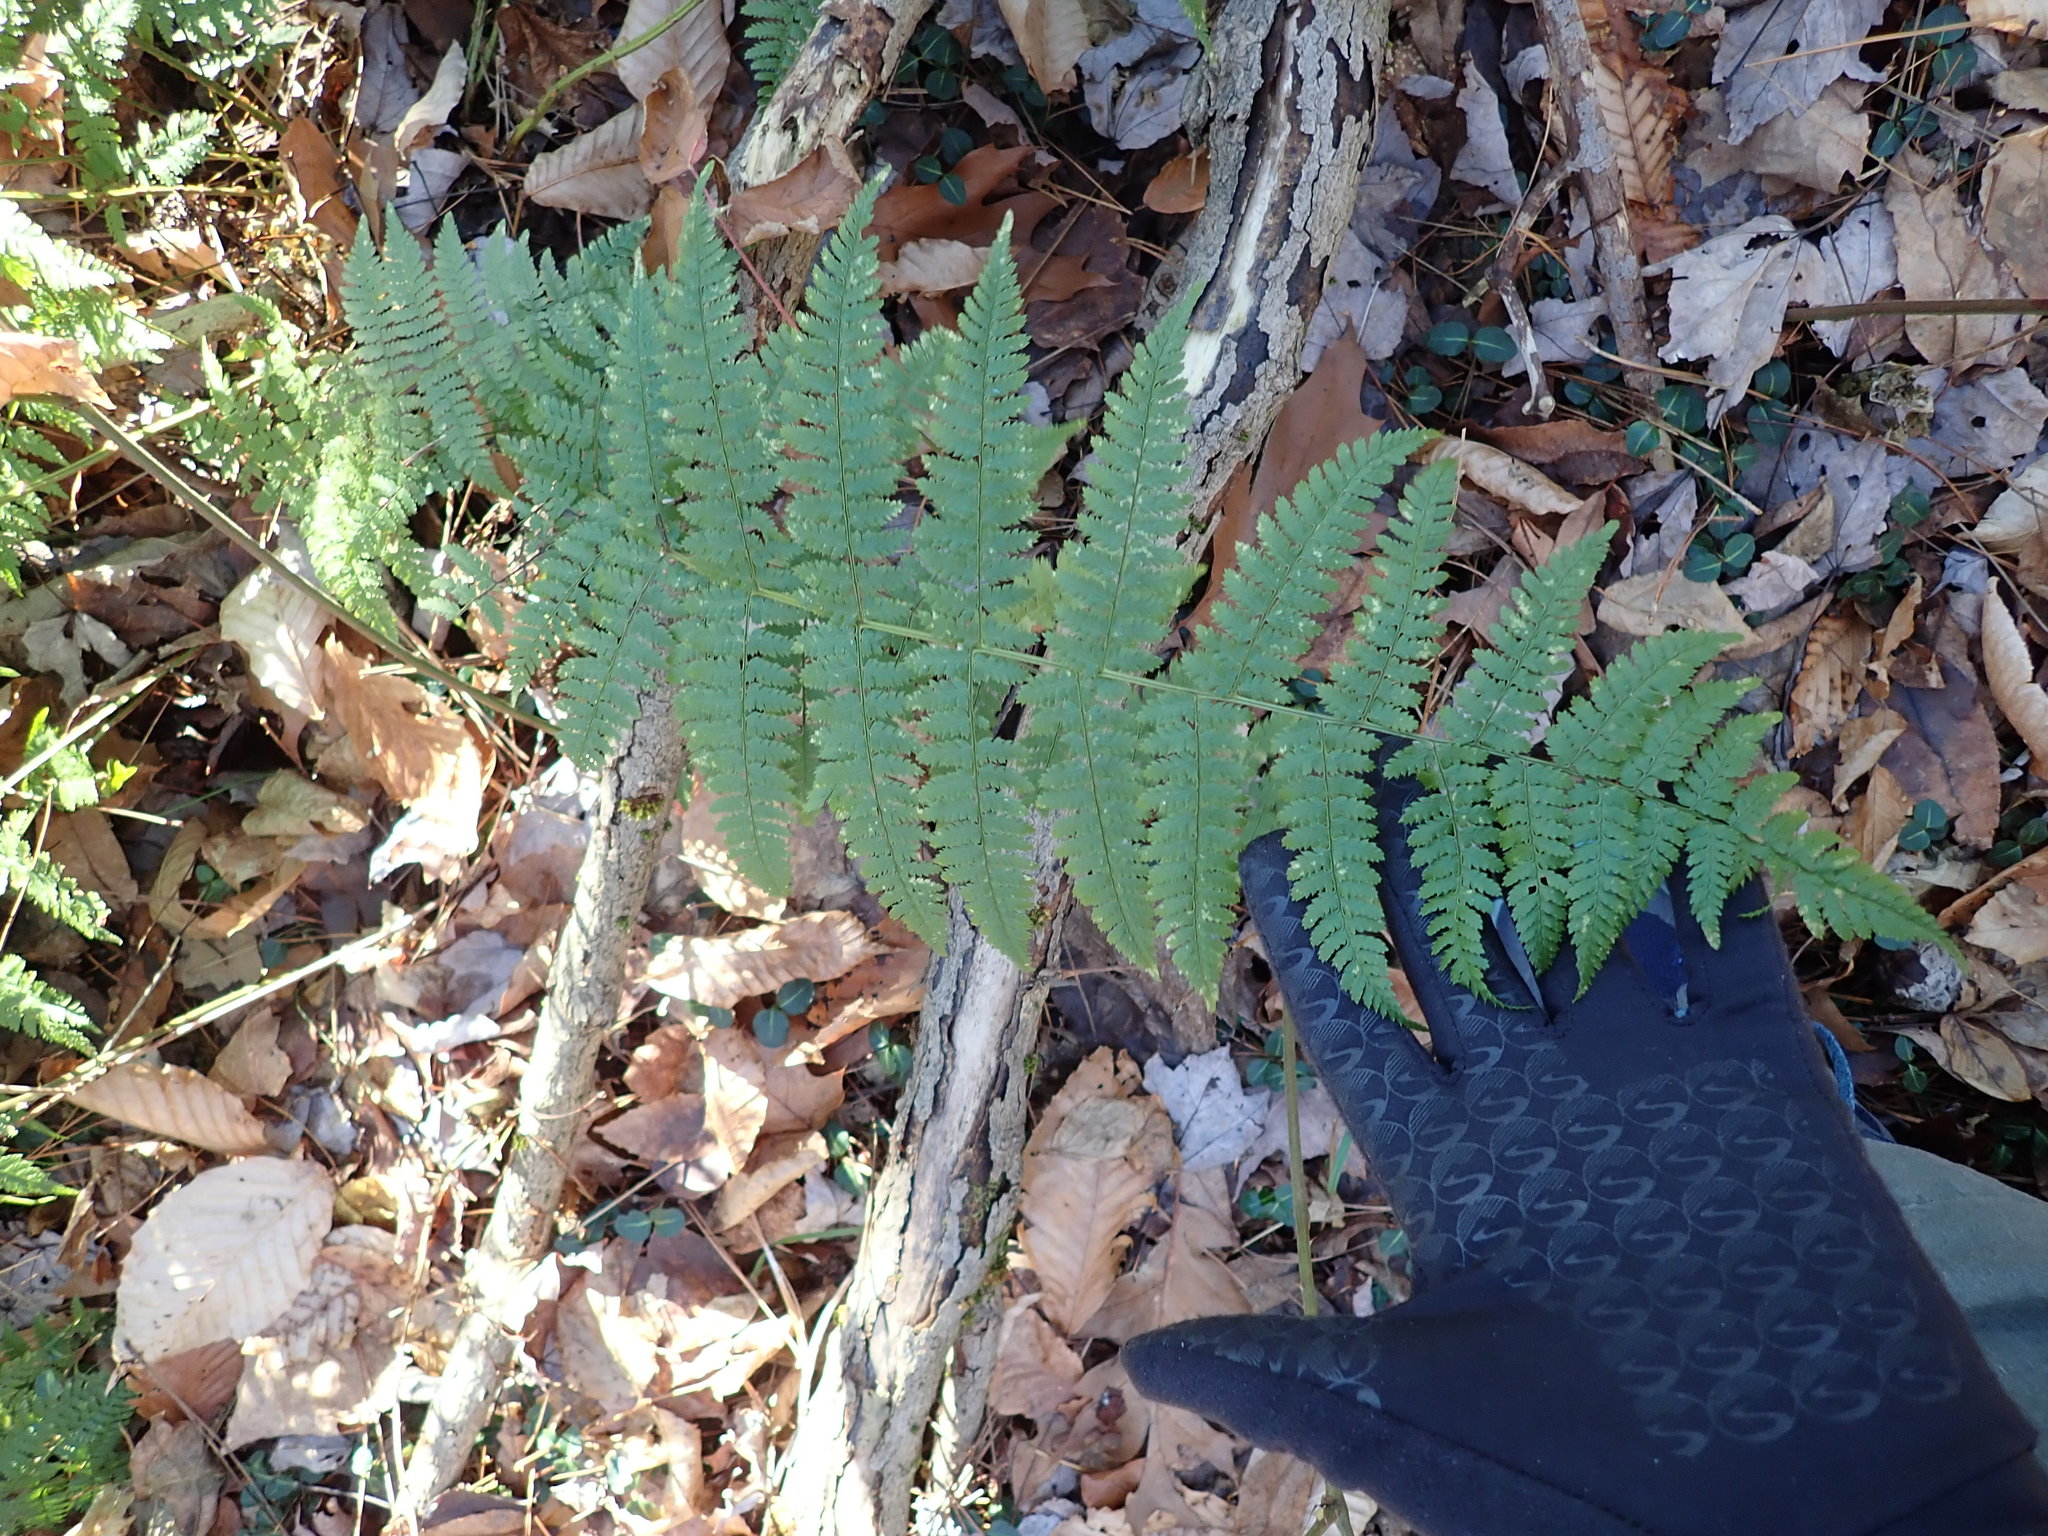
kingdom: Plantae
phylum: Tracheophyta
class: Polypodiopsida
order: Polypodiales
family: Dryopteridaceae
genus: Dryopteris
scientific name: Dryopteris intermedia
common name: Evergreen wood fern
